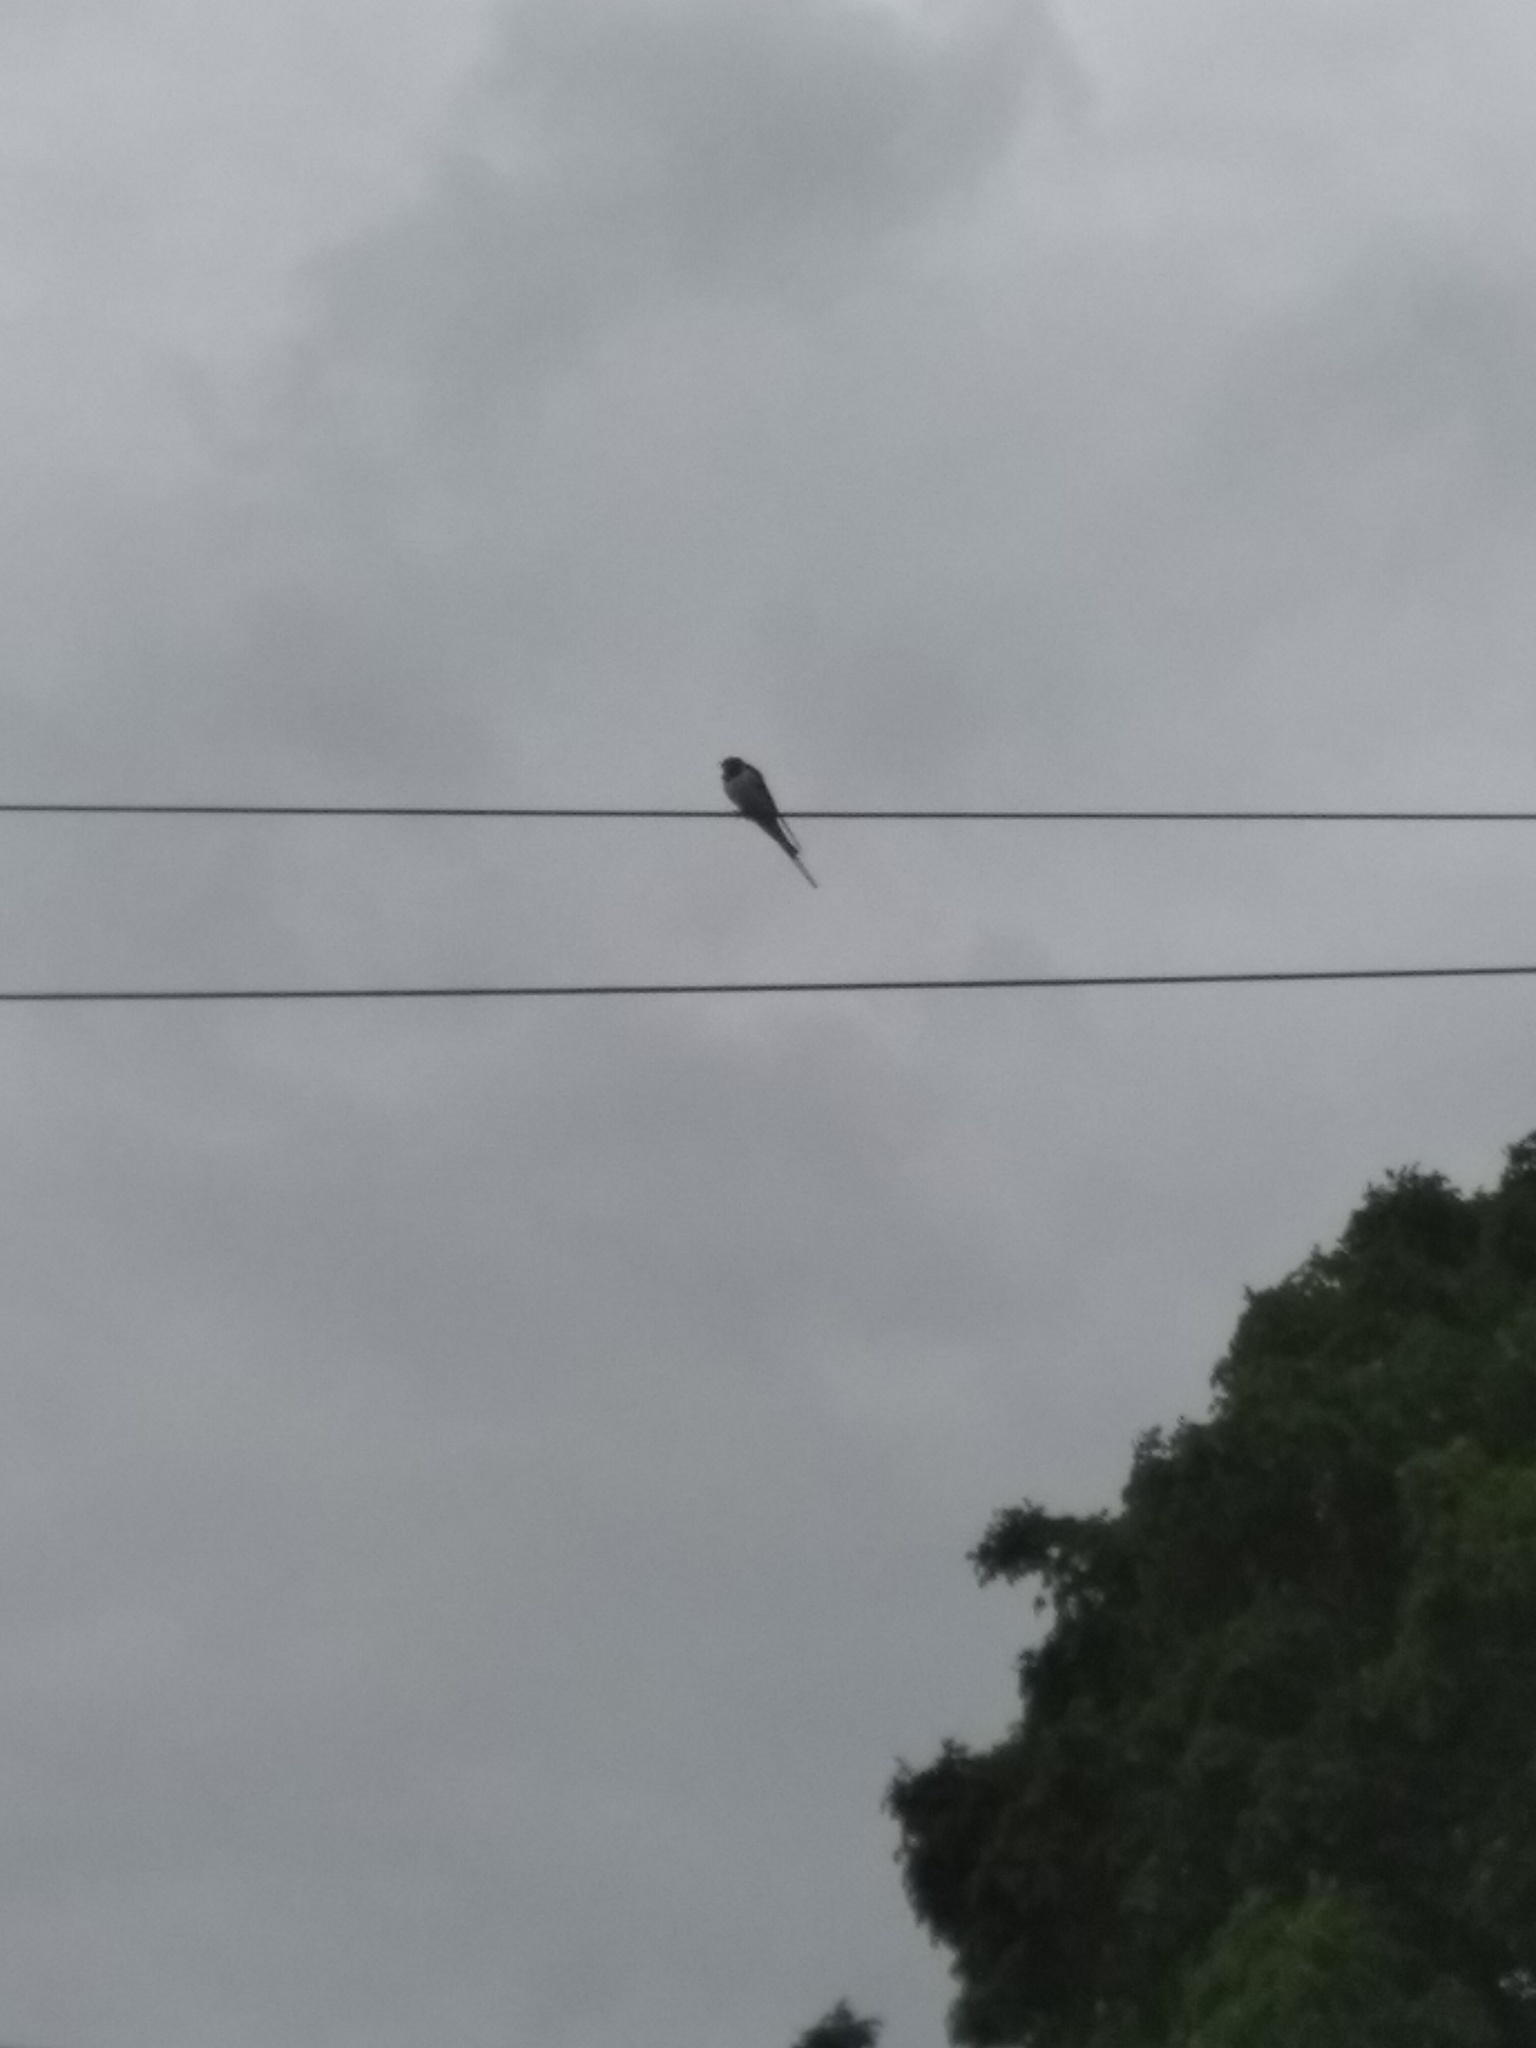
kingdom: Animalia
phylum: Chordata
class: Aves
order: Passeriformes
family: Hirundinidae
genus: Hirundo
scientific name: Hirundo rustica
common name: Barn swallow
